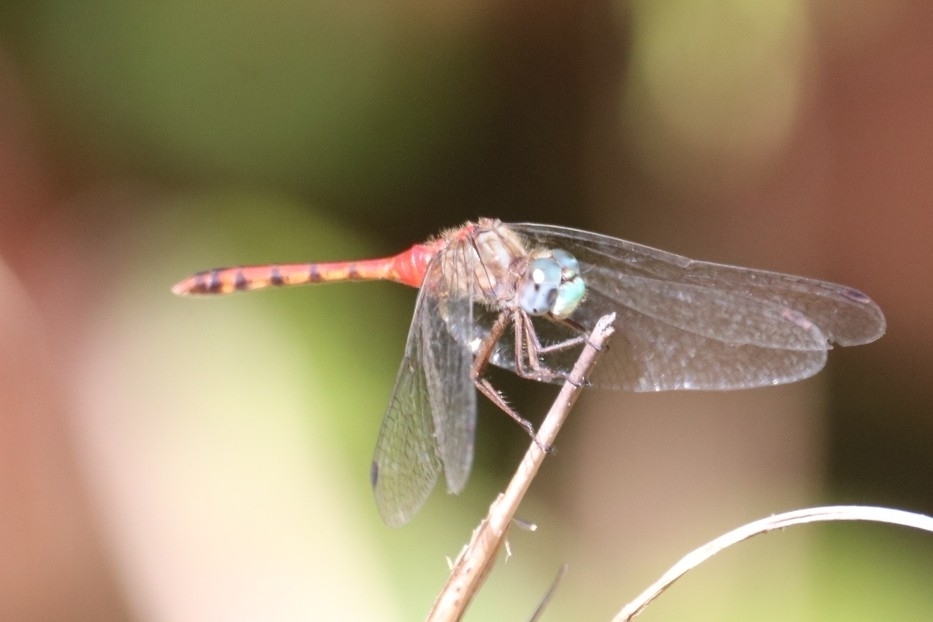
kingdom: Animalia
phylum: Arthropoda
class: Insecta
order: Odonata
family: Libellulidae
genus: Sympetrum
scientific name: Sympetrum ambiguum
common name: Blue-faced meadowhawk
